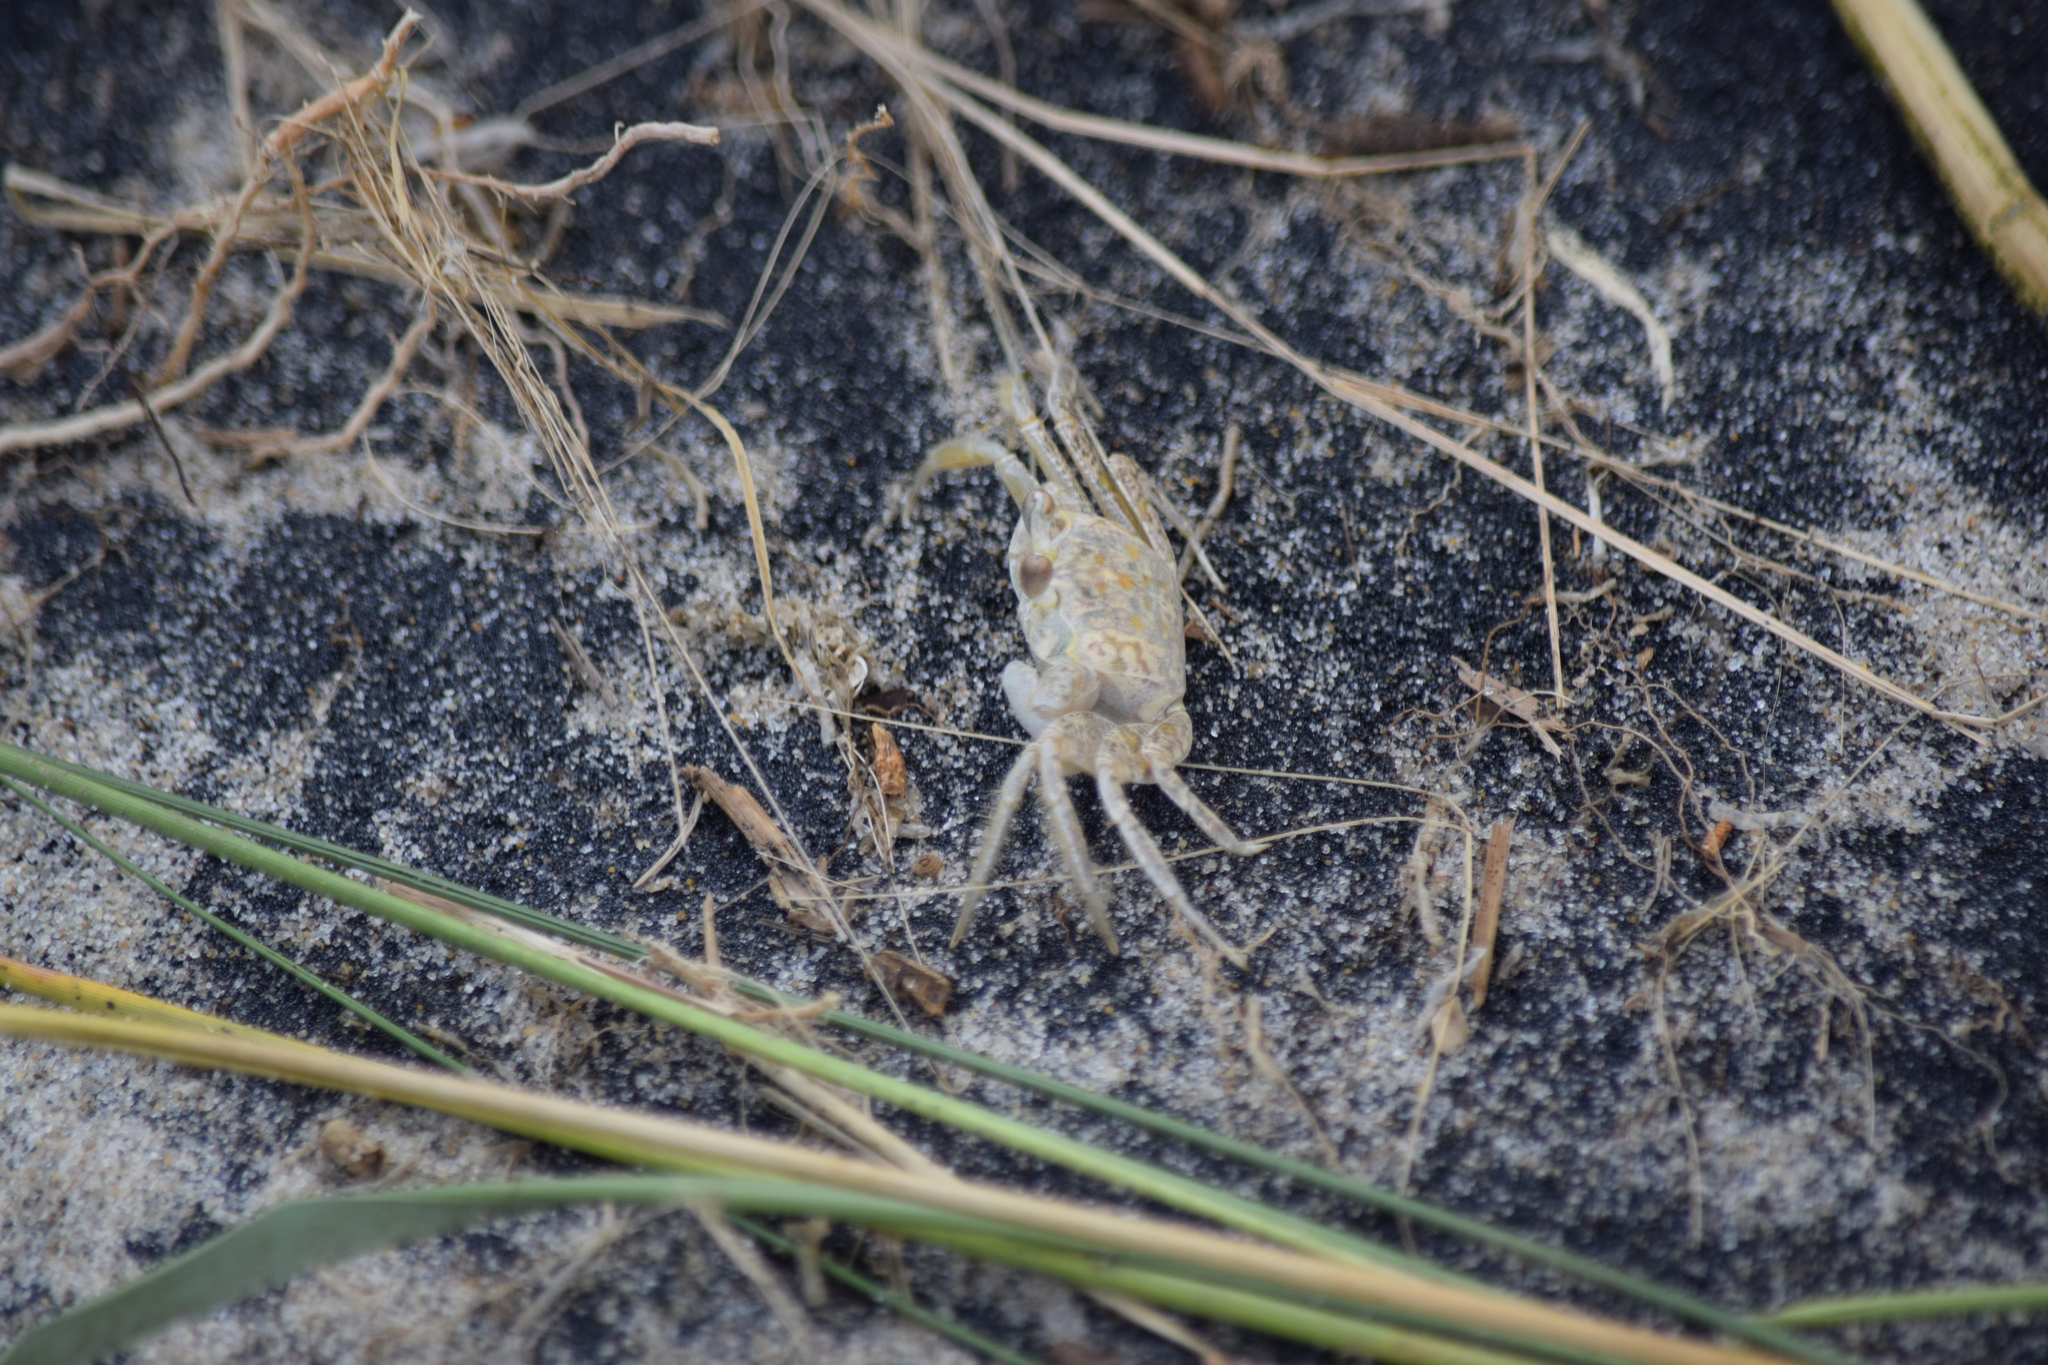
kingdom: Animalia
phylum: Arthropoda
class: Malacostraca
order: Decapoda
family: Ocypodidae
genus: Ocypode
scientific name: Ocypode quadrata
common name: Ghost crab
